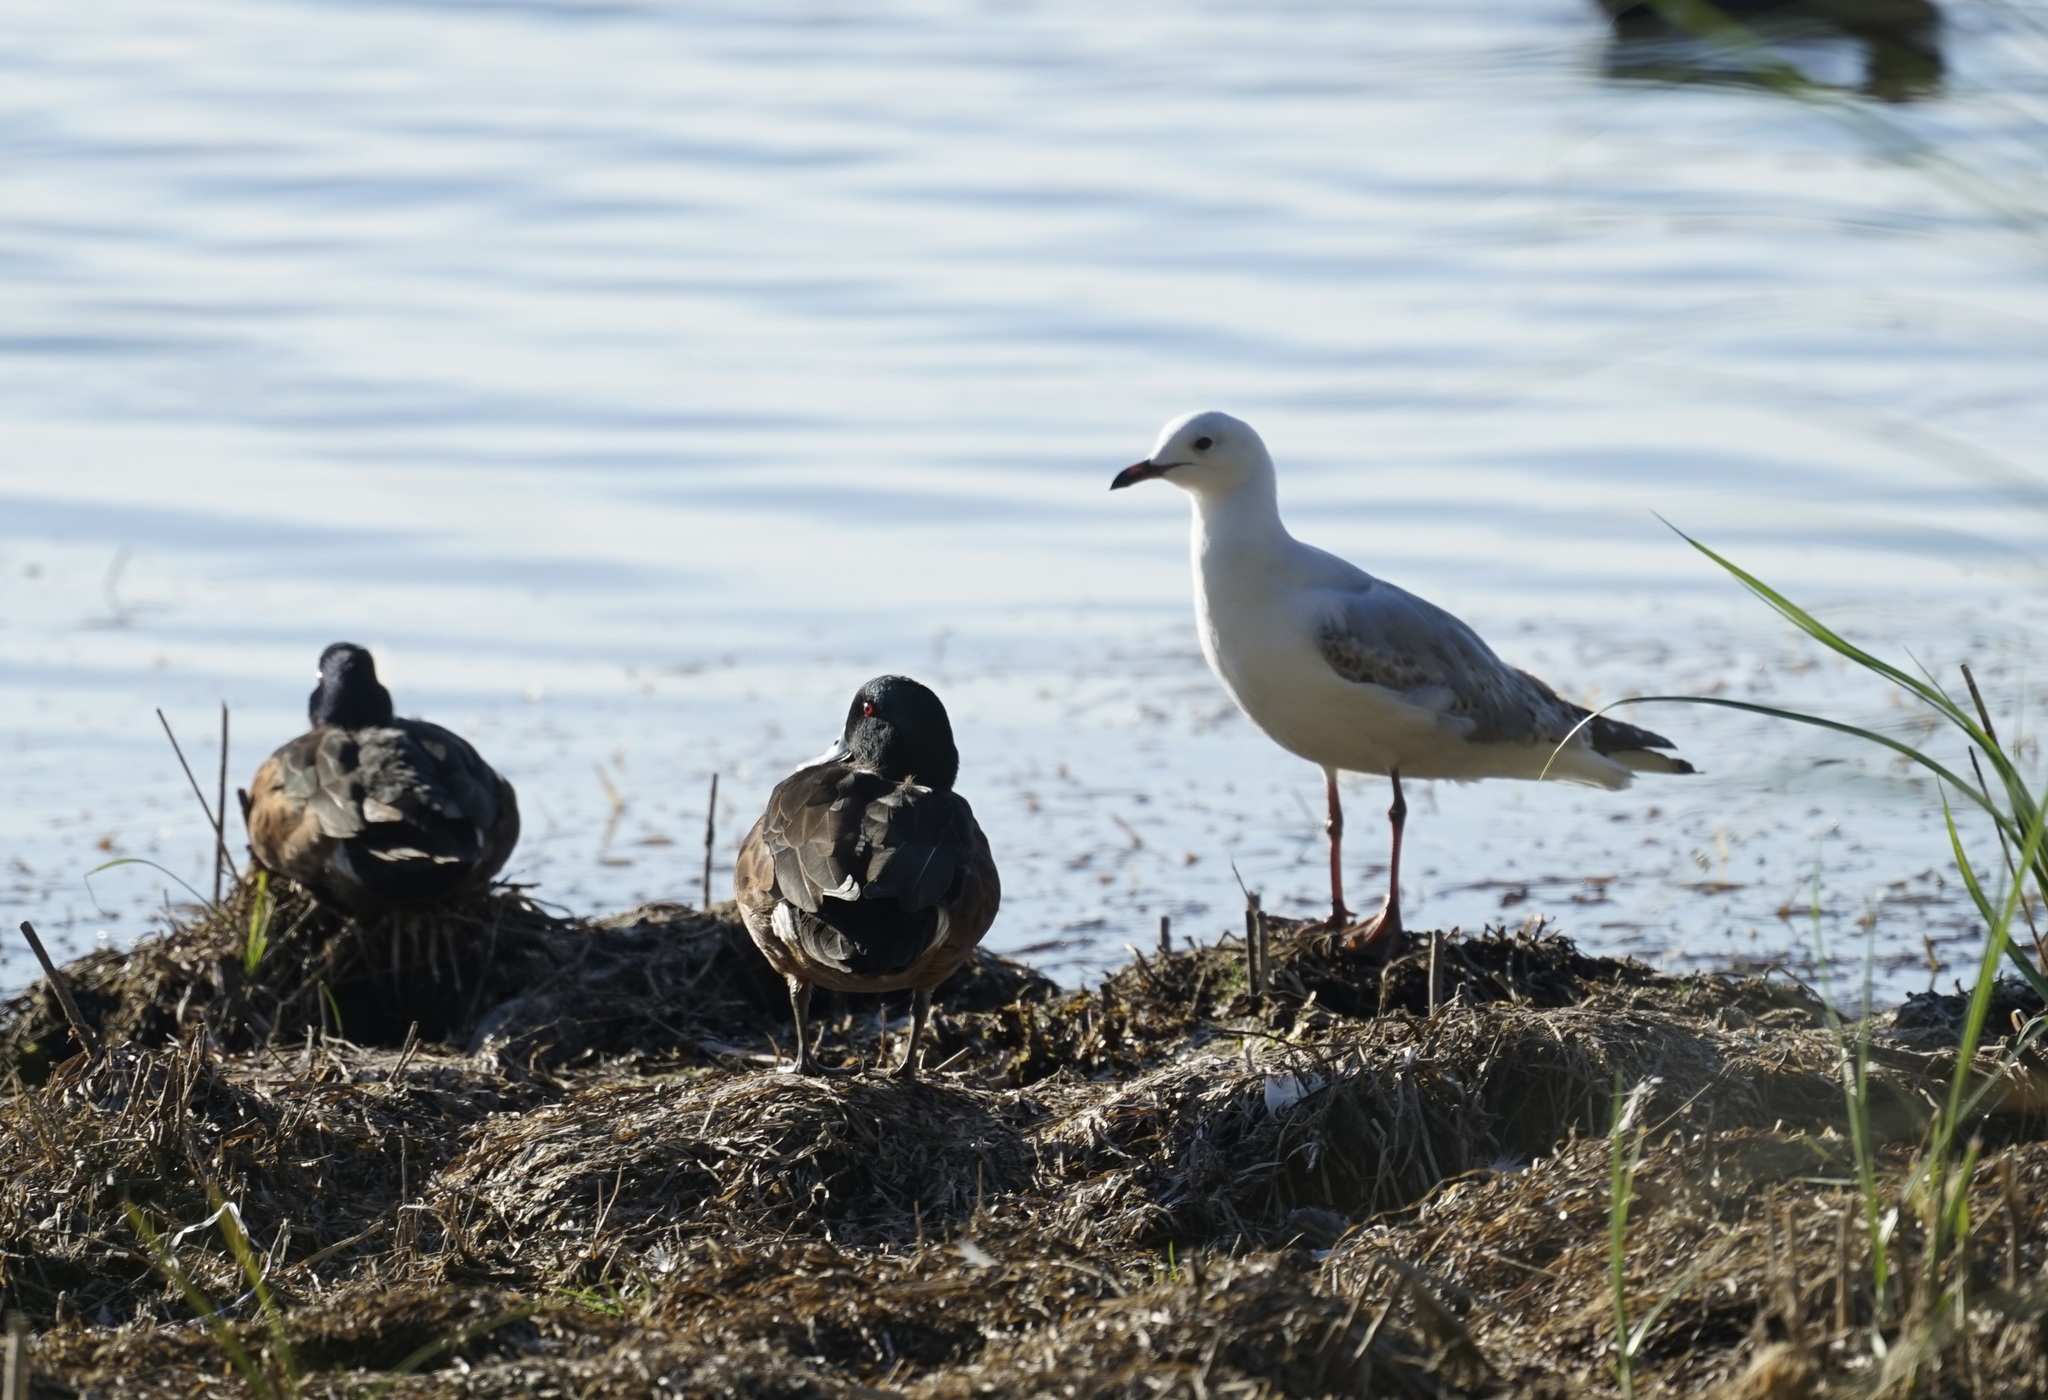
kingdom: Animalia
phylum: Chordata
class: Aves
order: Charadriiformes
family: Laridae
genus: Chroicocephalus
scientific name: Chroicocephalus novaehollandiae
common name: Silver gull
